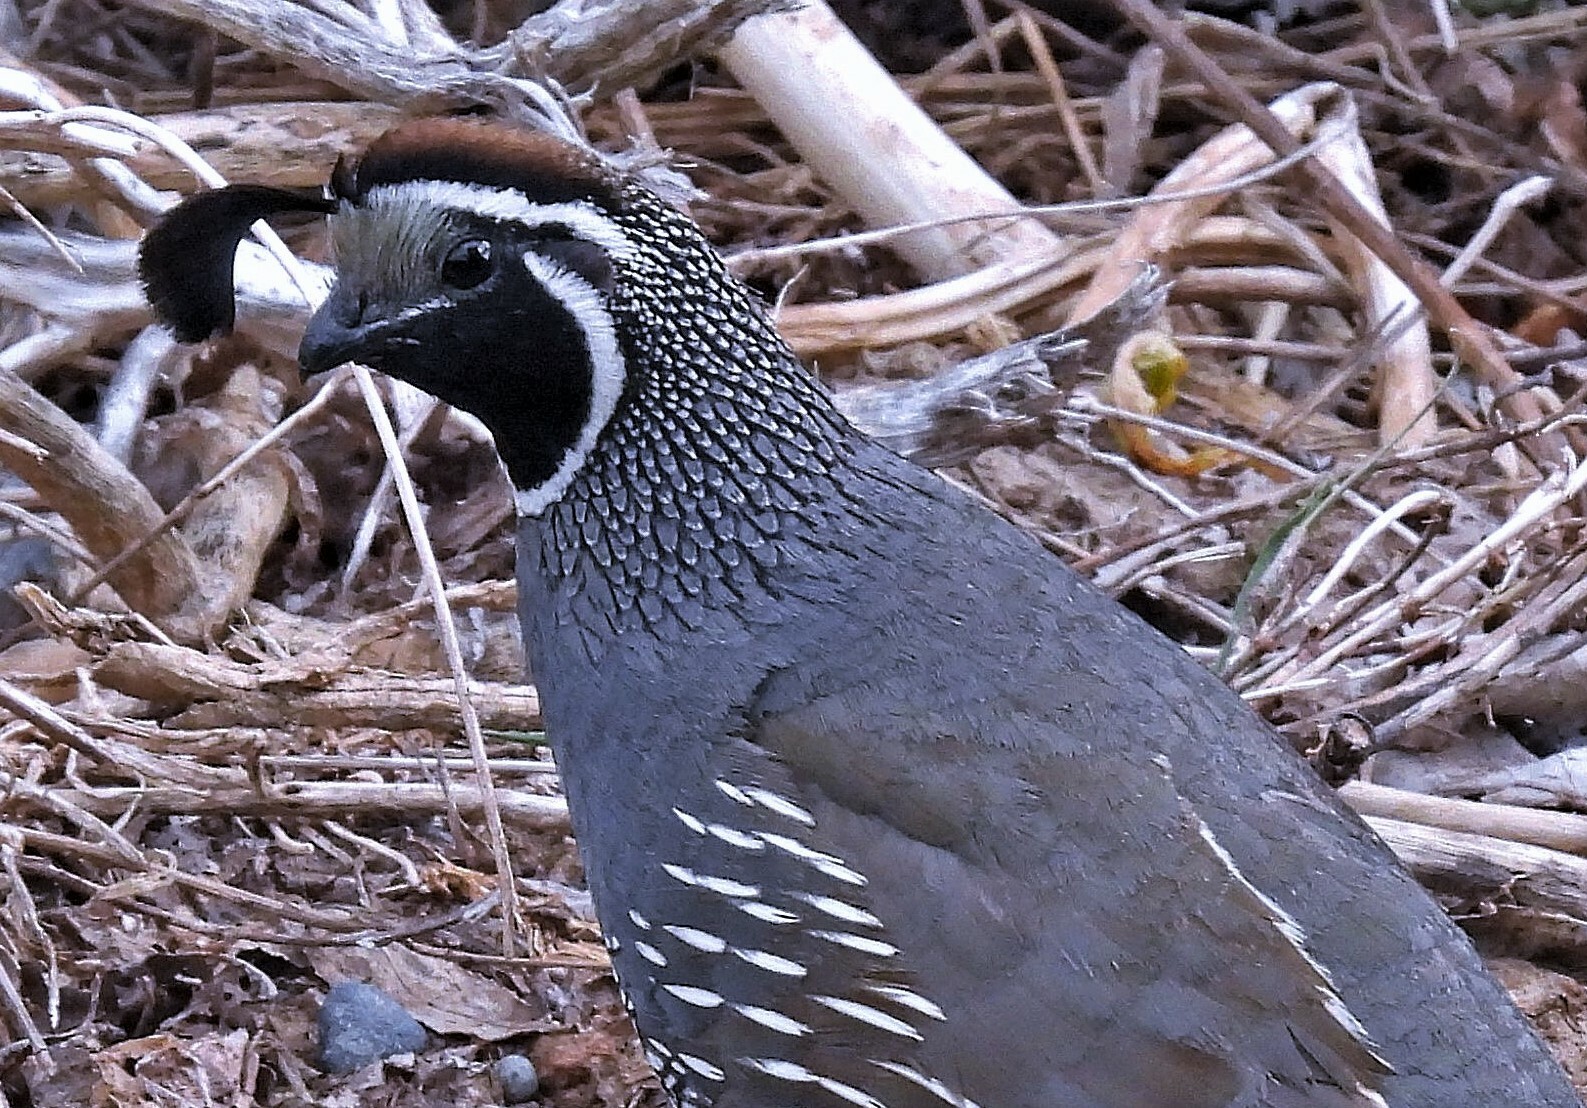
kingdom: Animalia
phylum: Chordata
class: Aves
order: Galliformes
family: Odontophoridae
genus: Callipepla
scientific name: Callipepla californica
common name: California quail
